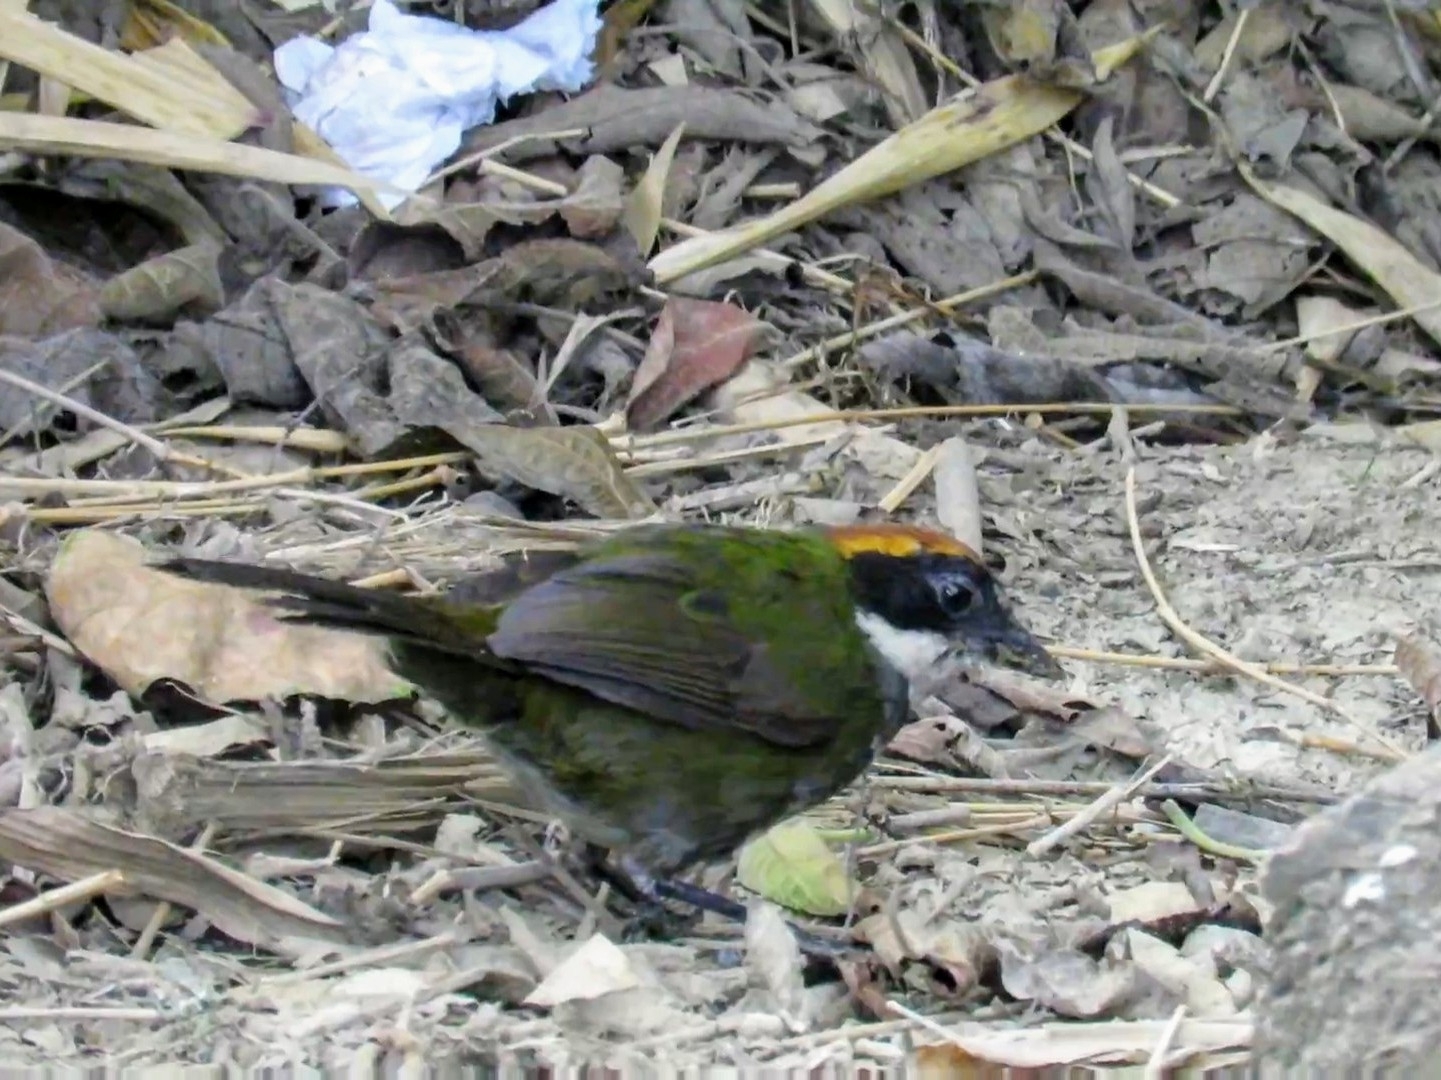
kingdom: Animalia
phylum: Chordata
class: Aves
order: Passeriformes
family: Passerellidae
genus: Arremon
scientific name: Arremon brunneinucha
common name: Chestnut-capped brushfinch
